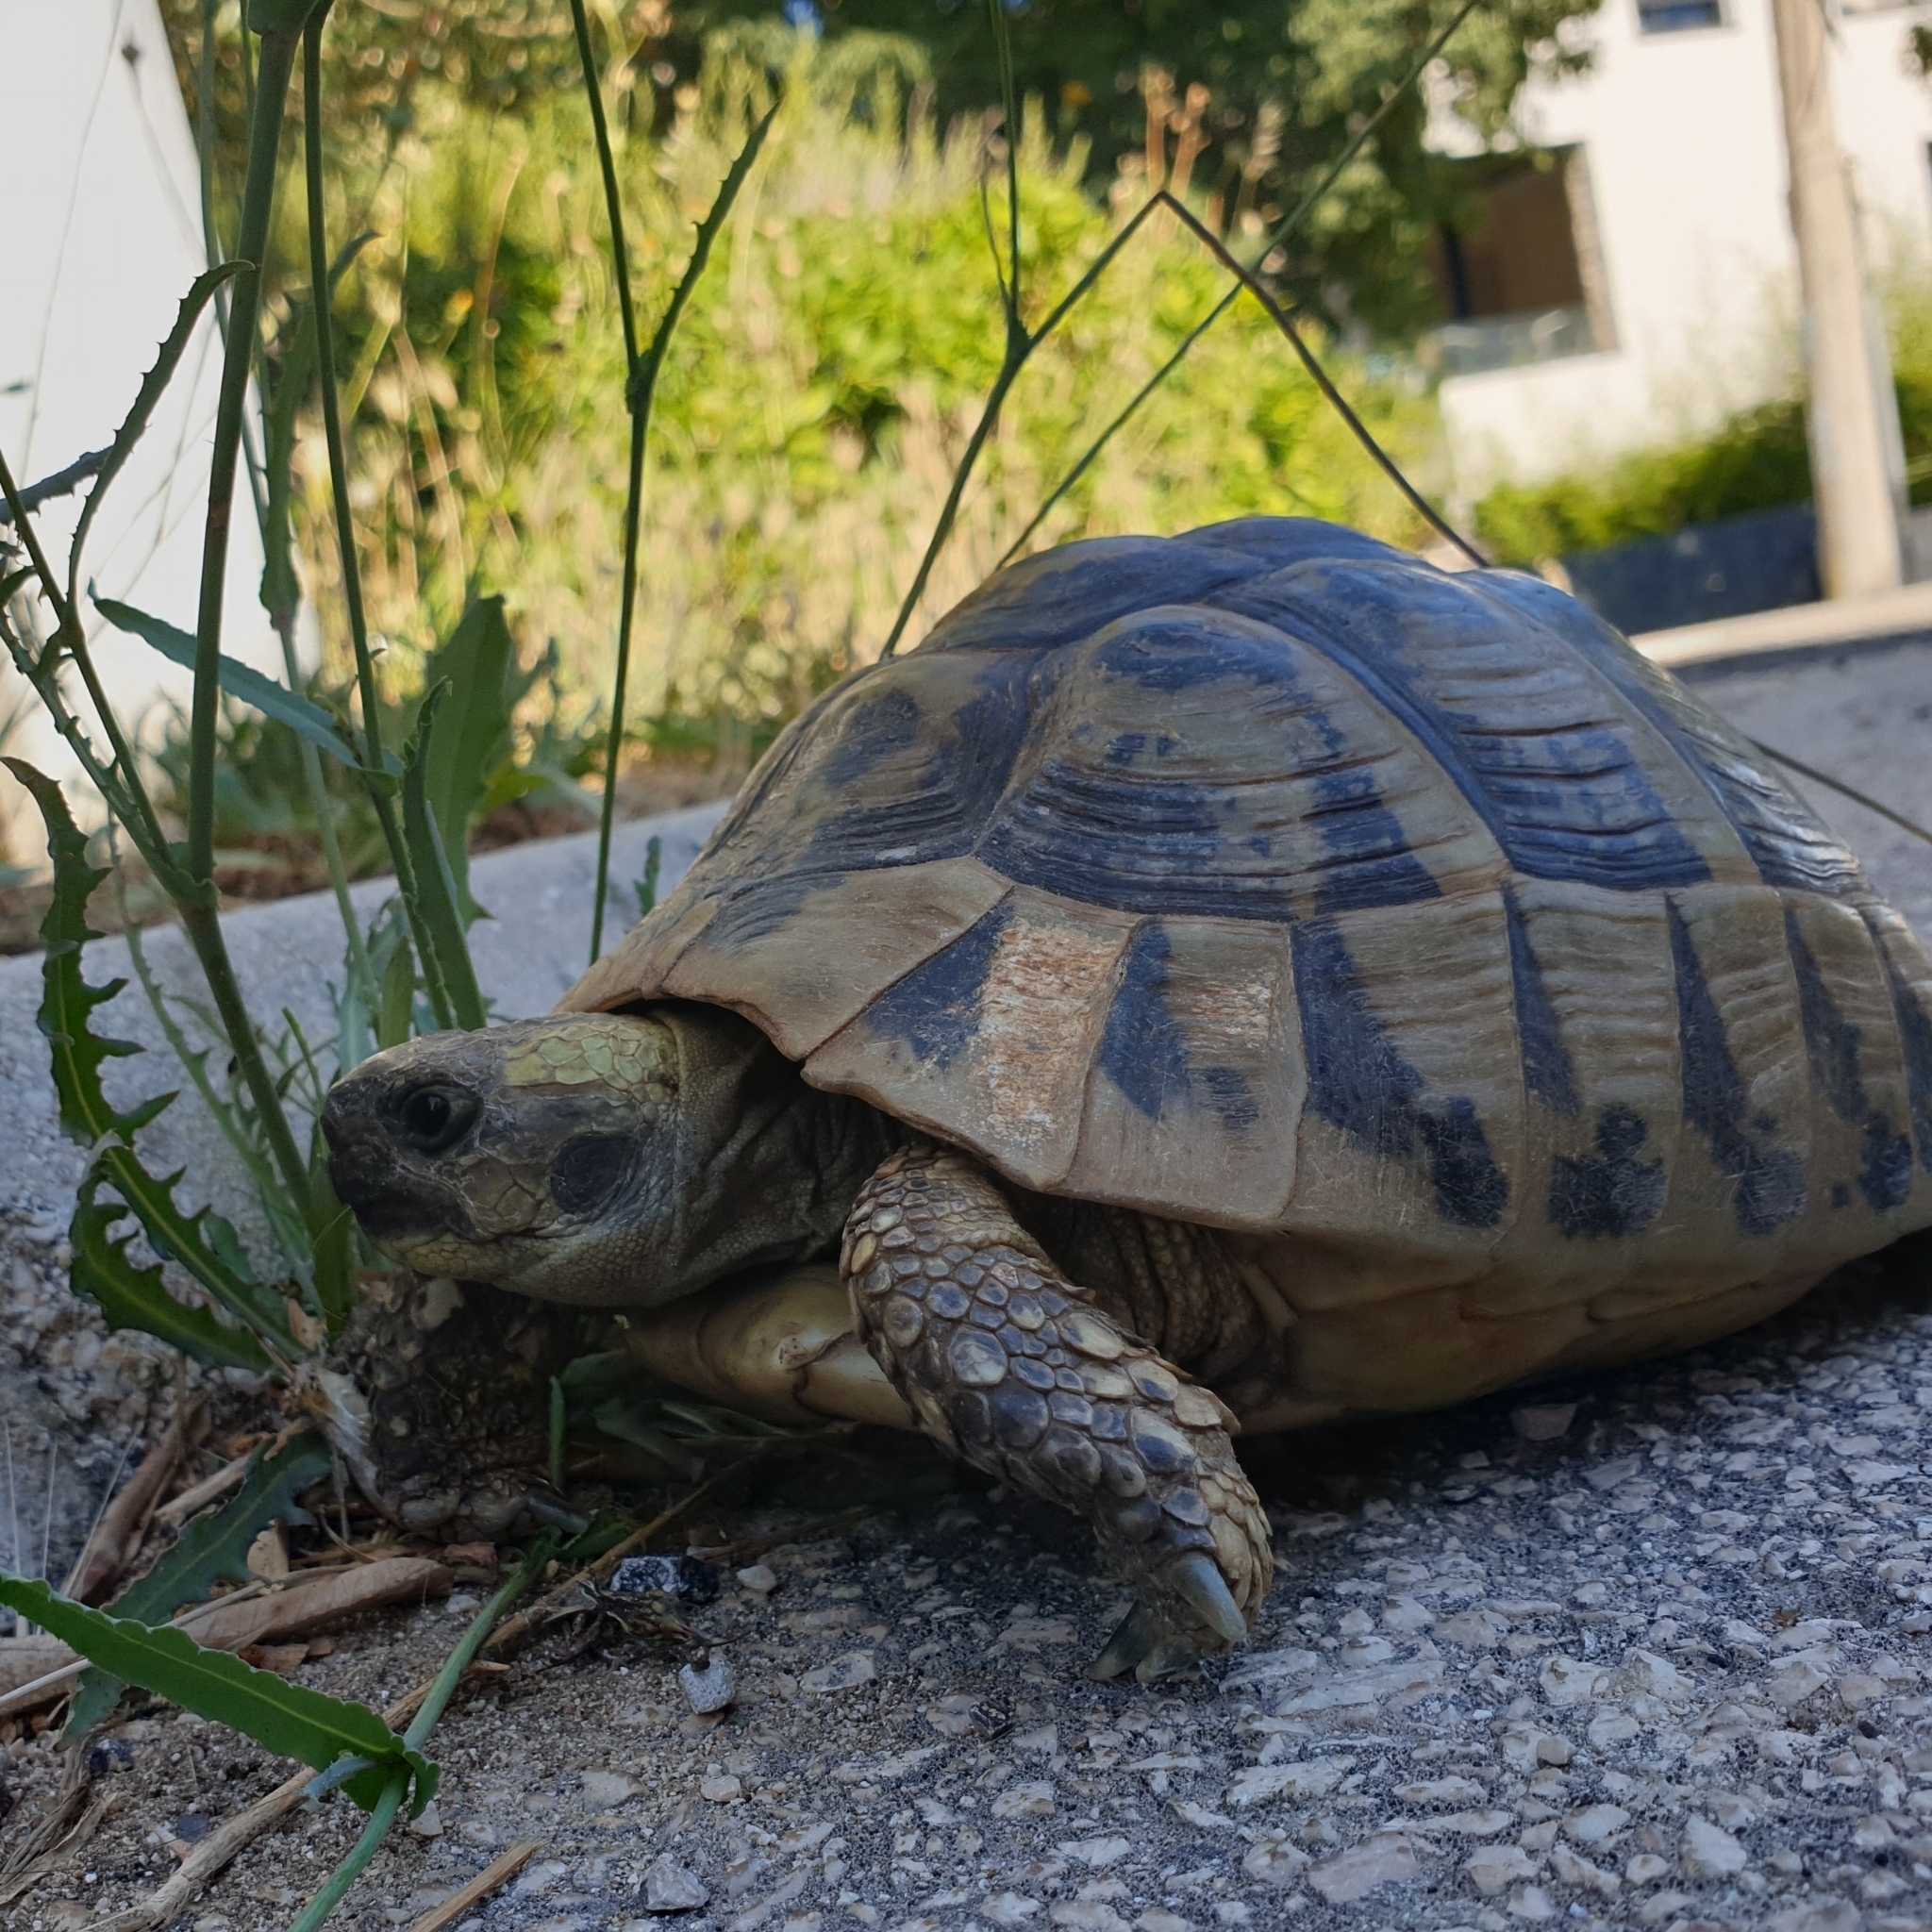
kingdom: Animalia
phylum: Chordata
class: Testudines
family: Testudinidae
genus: Testudo
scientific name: Testudo hermanni
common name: Hermann's tortoise
